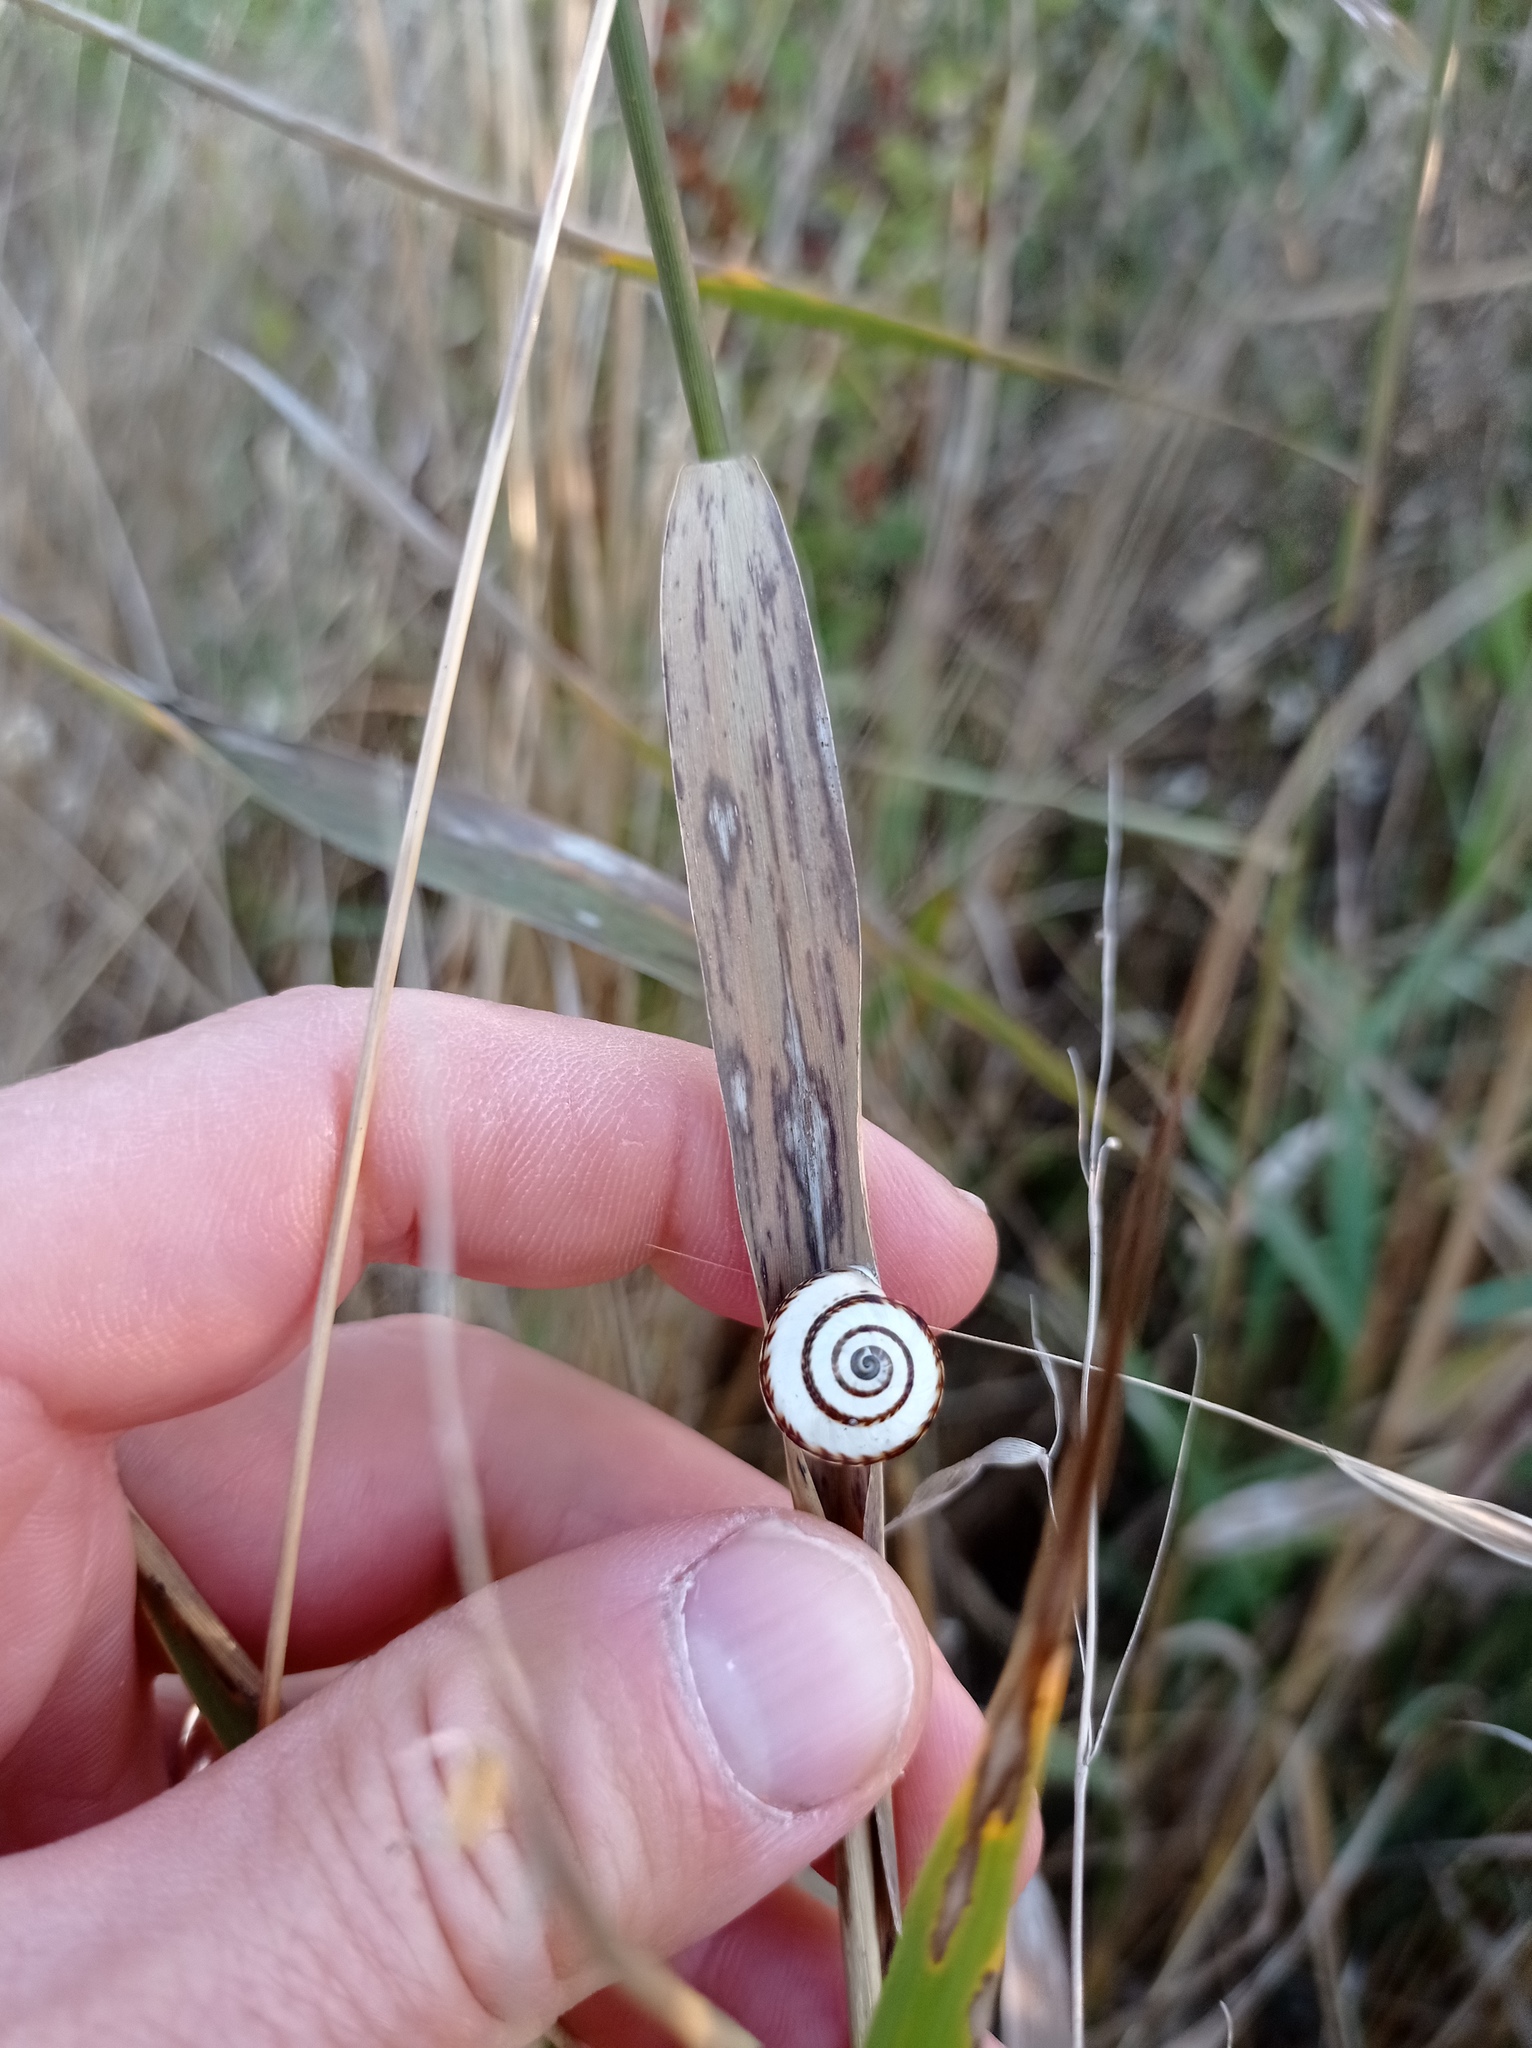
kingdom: Animalia
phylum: Mollusca
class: Gastropoda
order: Stylommatophora
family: Geomitridae
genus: Cernuella
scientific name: Cernuella virgata
